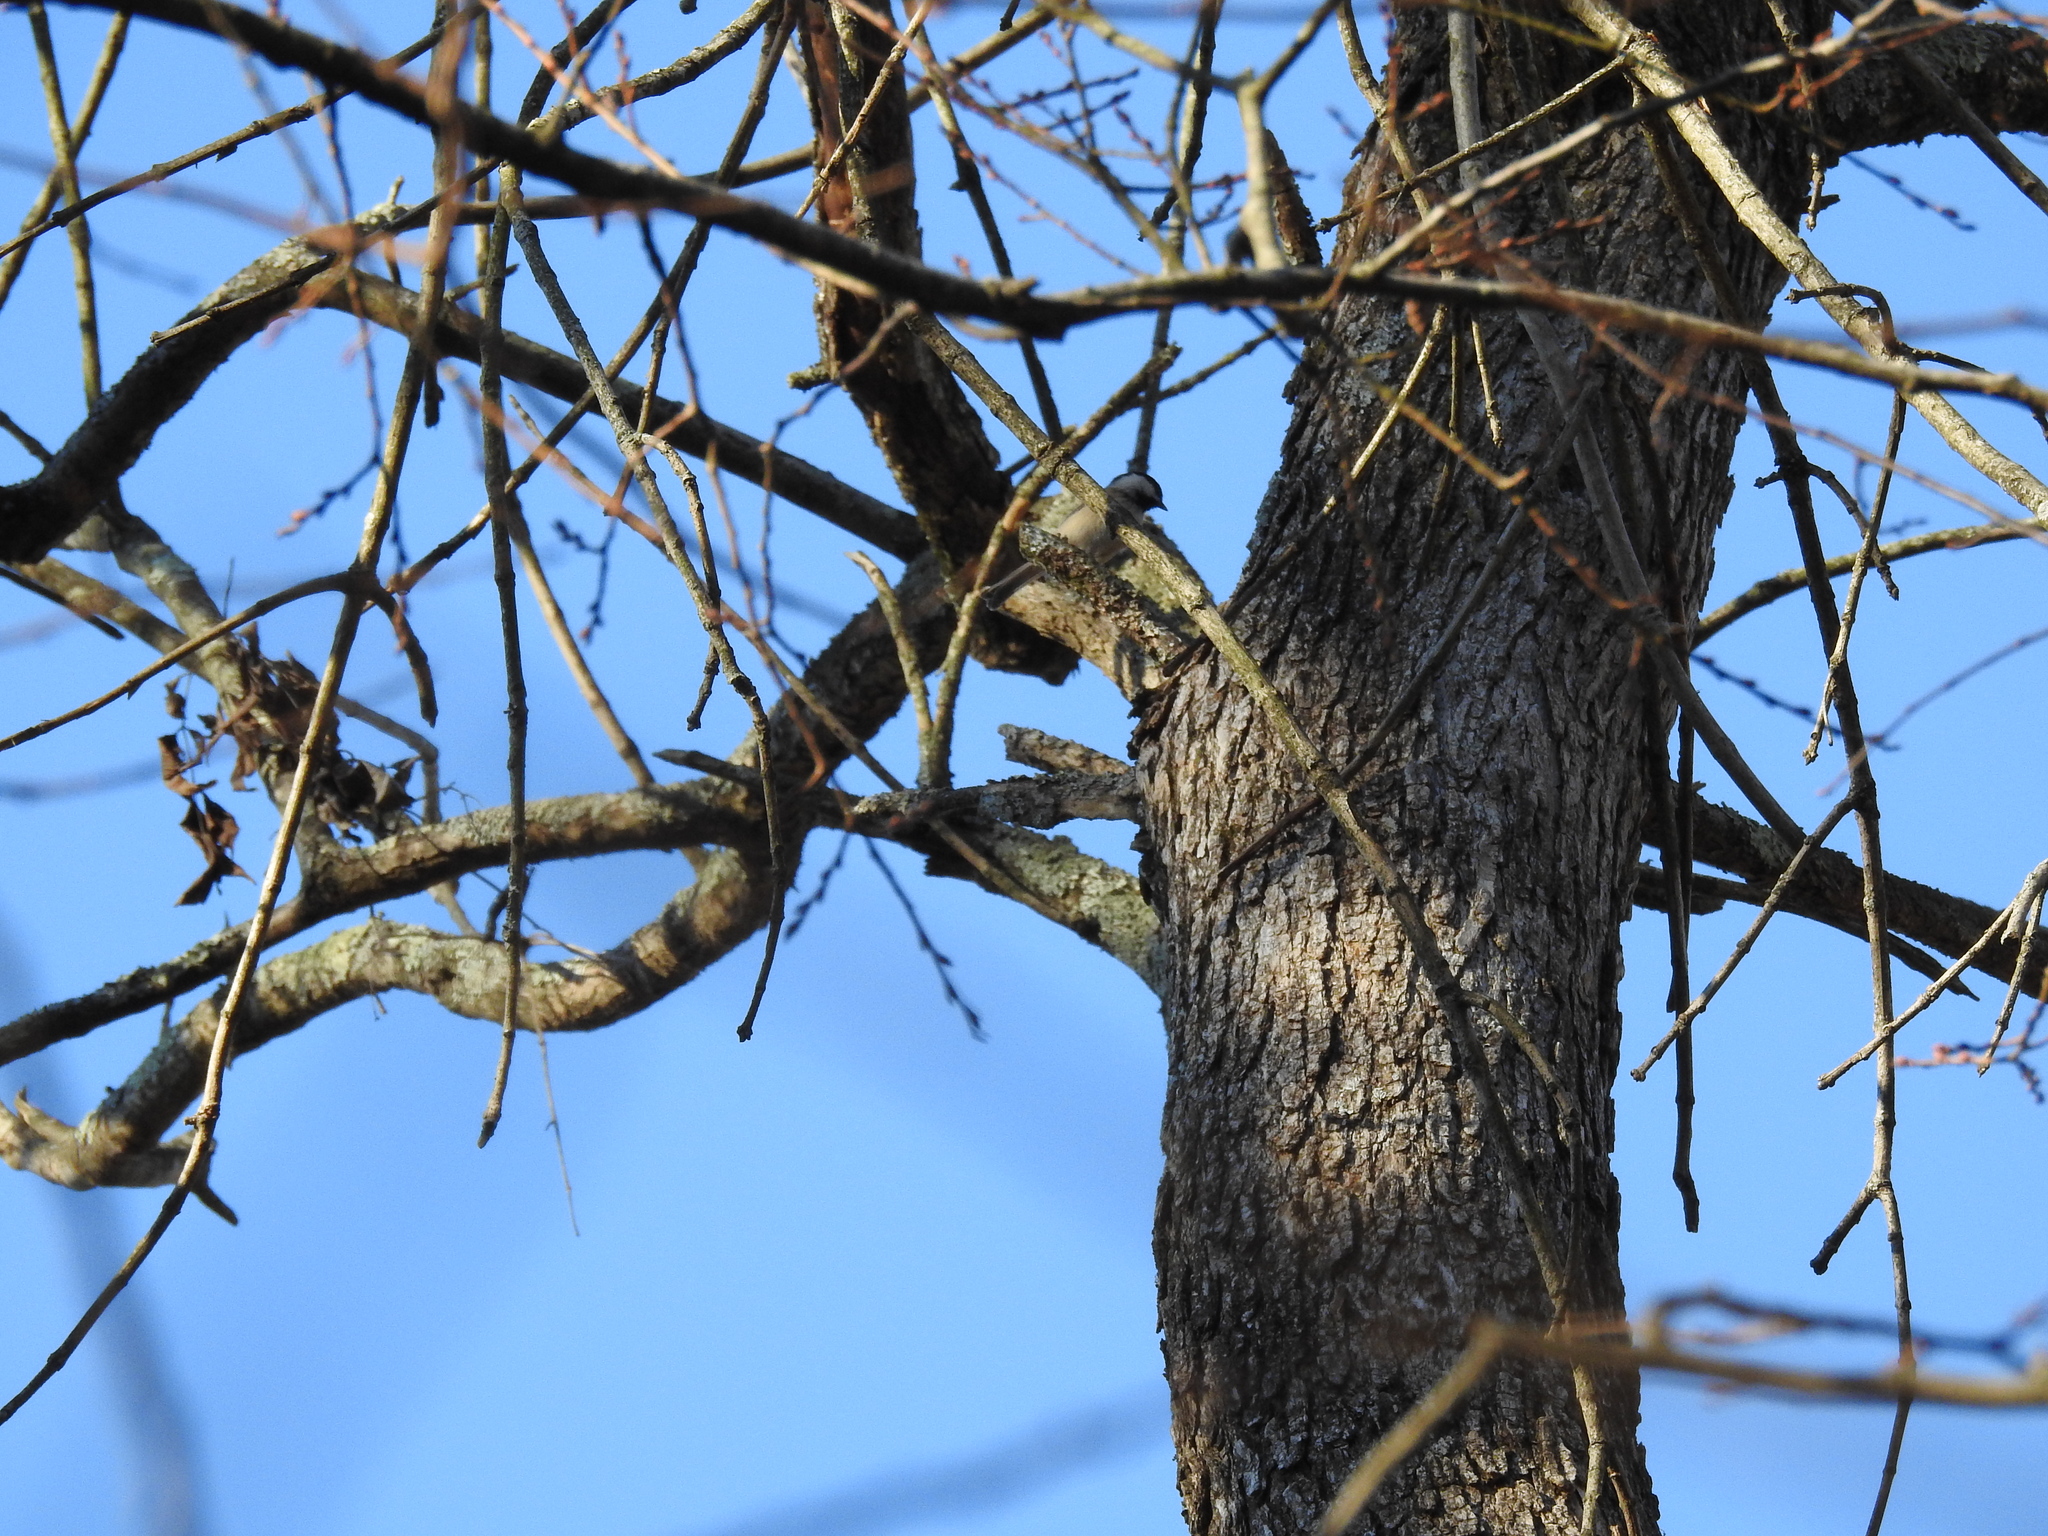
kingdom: Animalia
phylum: Chordata
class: Aves
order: Passeriformes
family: Paridae
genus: Poecile
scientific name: Poecile carolinensis
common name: Carolina chickadee
